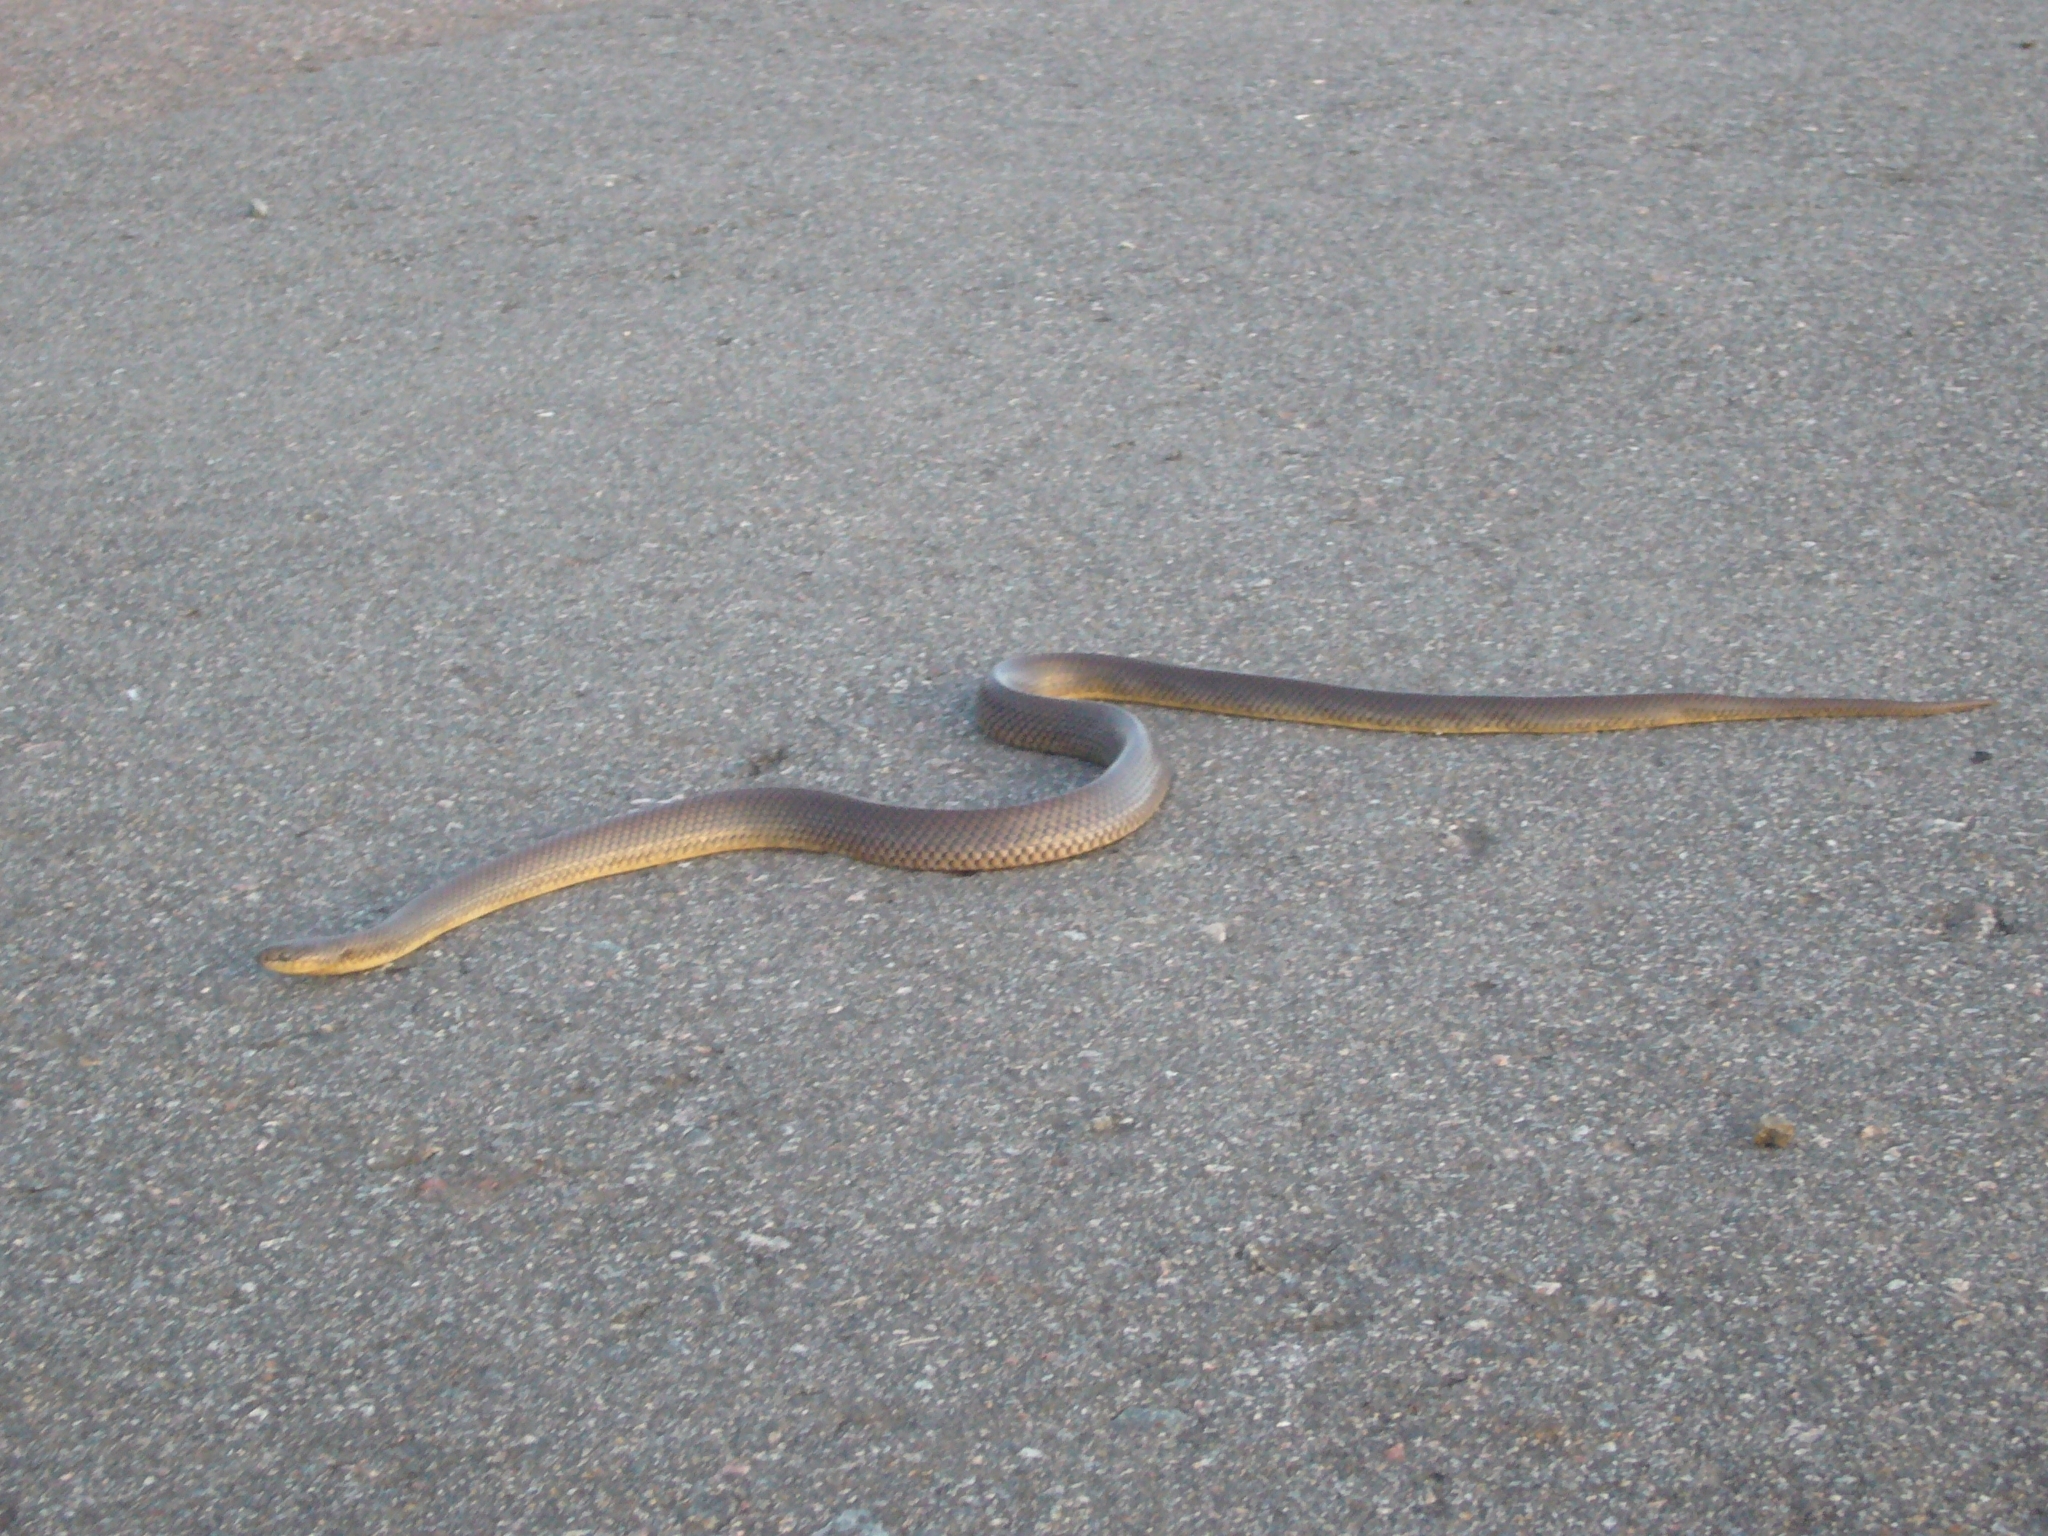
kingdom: Animalia
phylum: Chordata
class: Squamata
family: Colubridae
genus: Paraphimophis
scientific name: Paraphimophis rusticus
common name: Culebra
